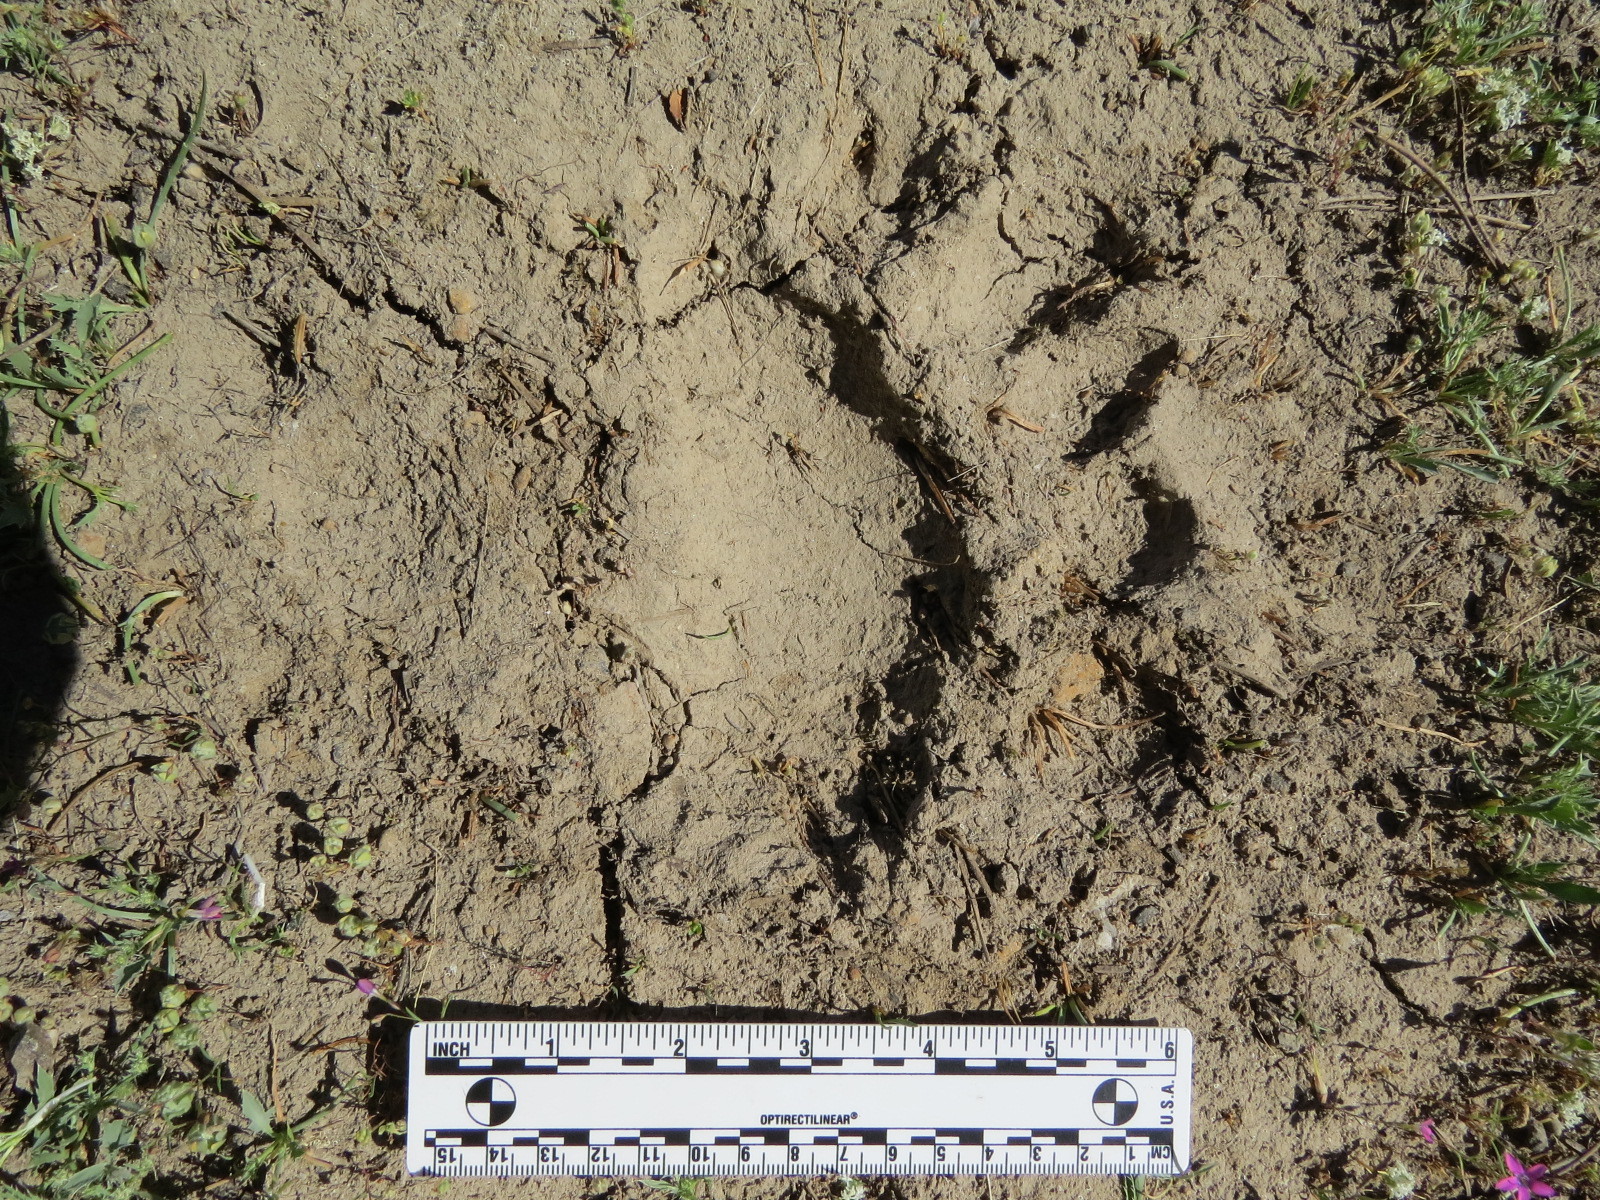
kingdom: Animalia
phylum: Chordata
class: Mammalia
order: Carnivora
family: Ursidae
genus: Ursus
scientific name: Ursus americanus
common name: American black bear
